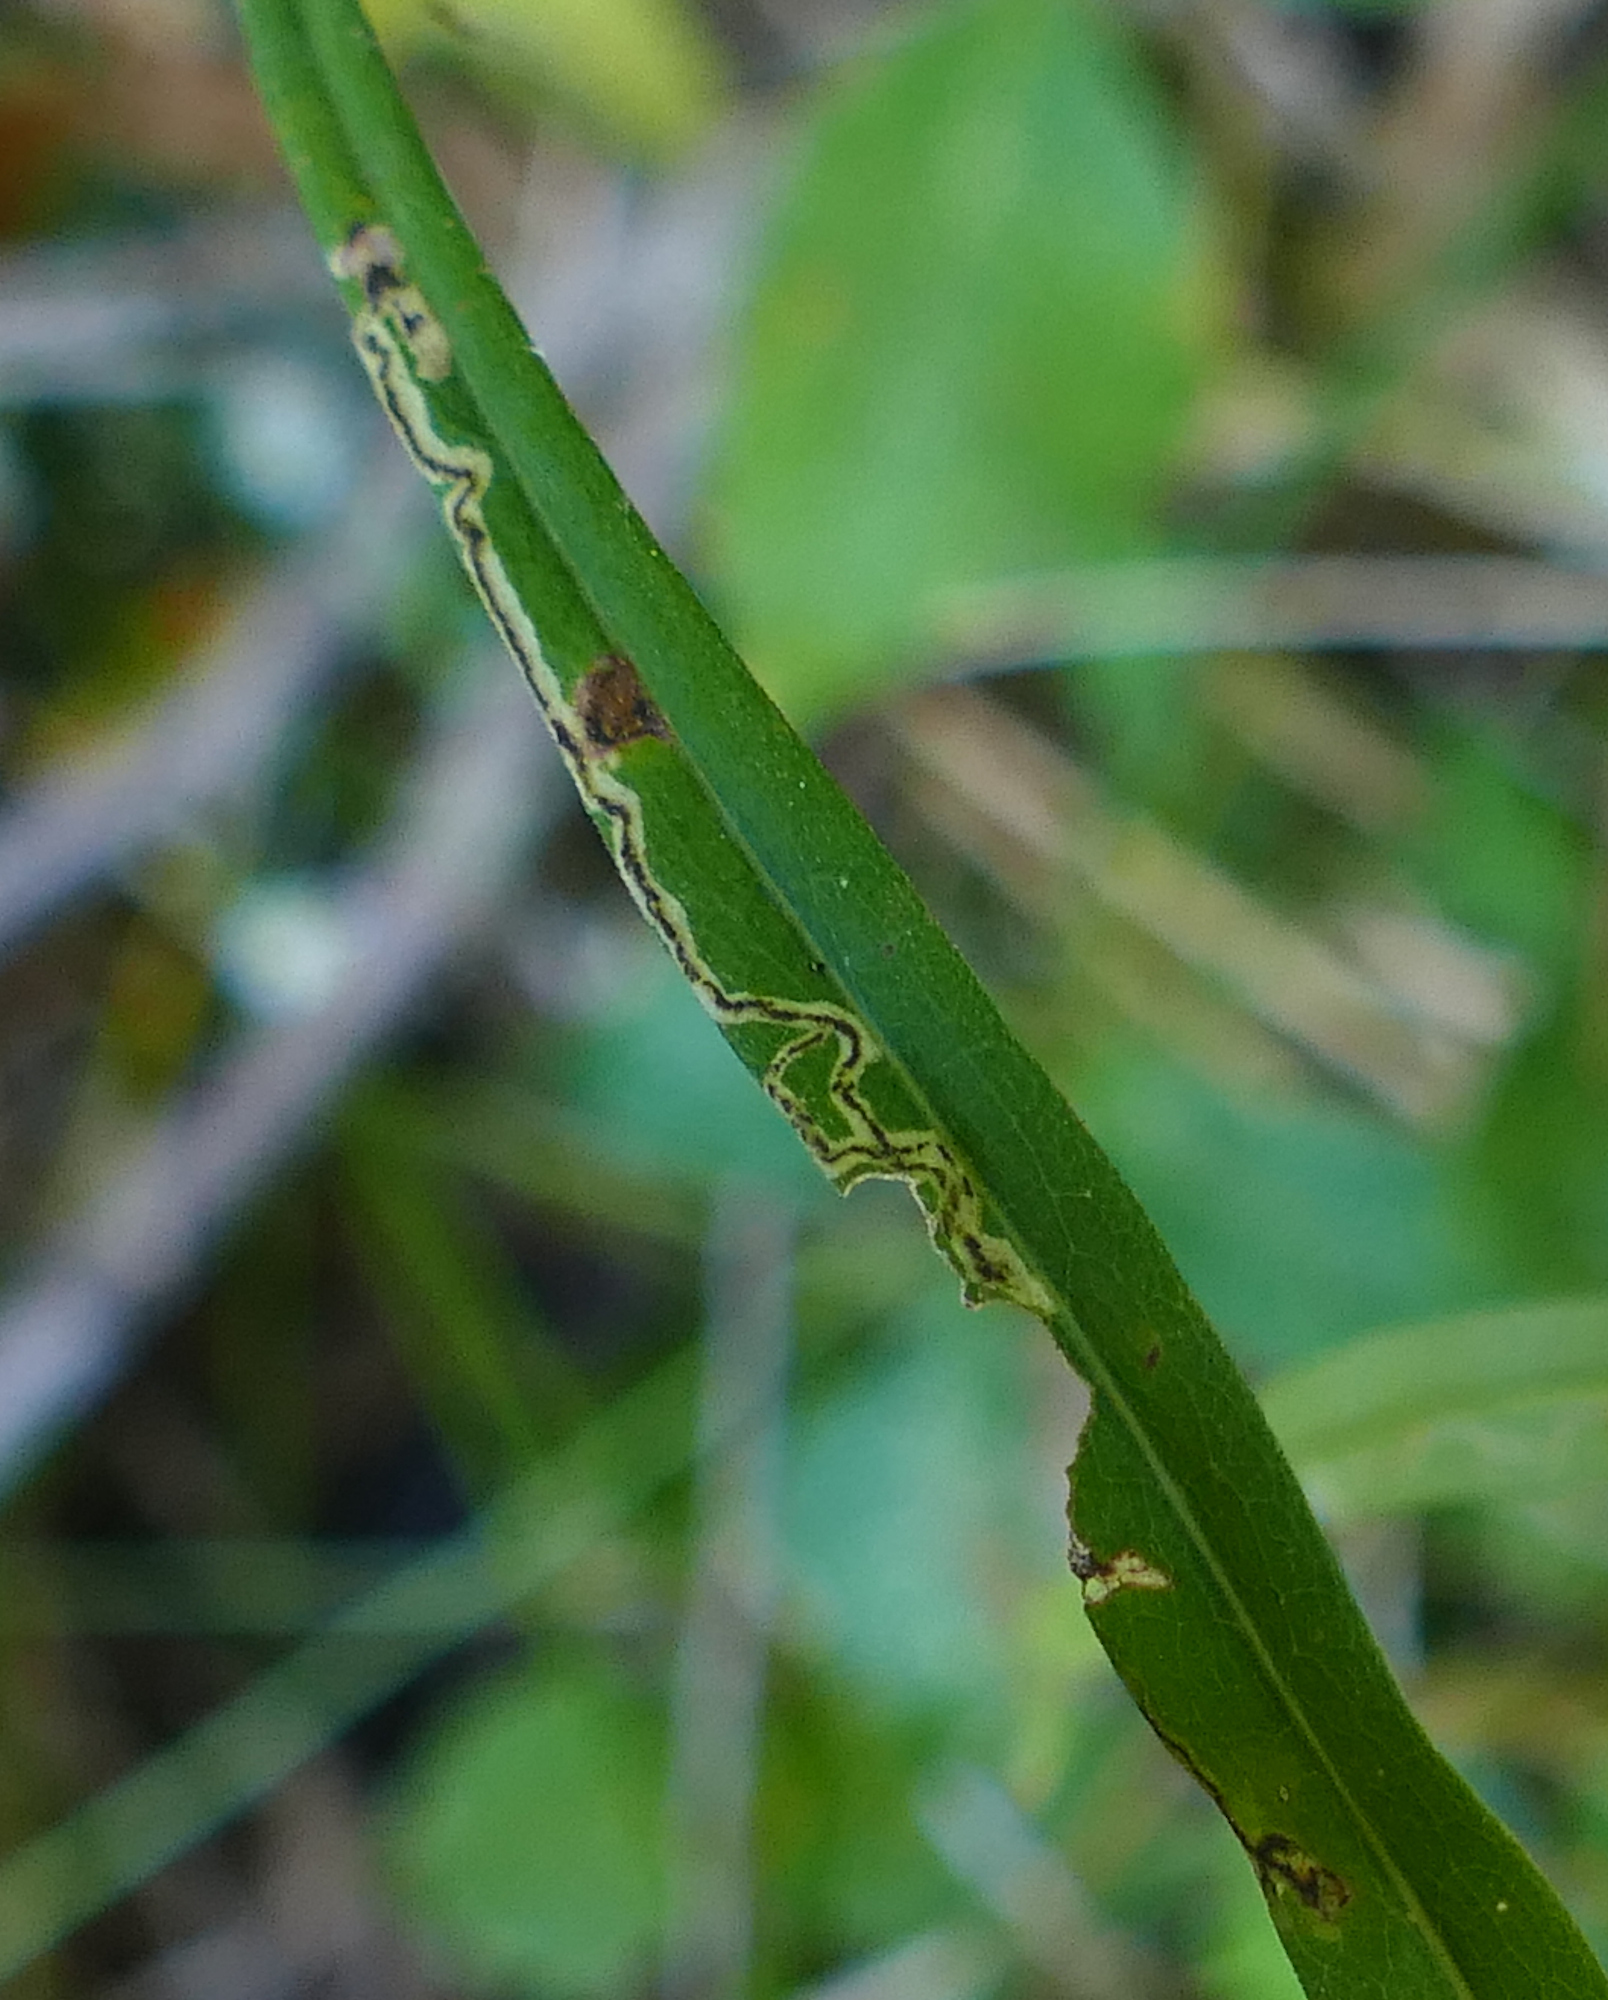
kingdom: Animalia
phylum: Arthropoda
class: Insecta
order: Diptera
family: Agromyzidae
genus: Liriomyza
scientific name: Liriomyza eupatorii
